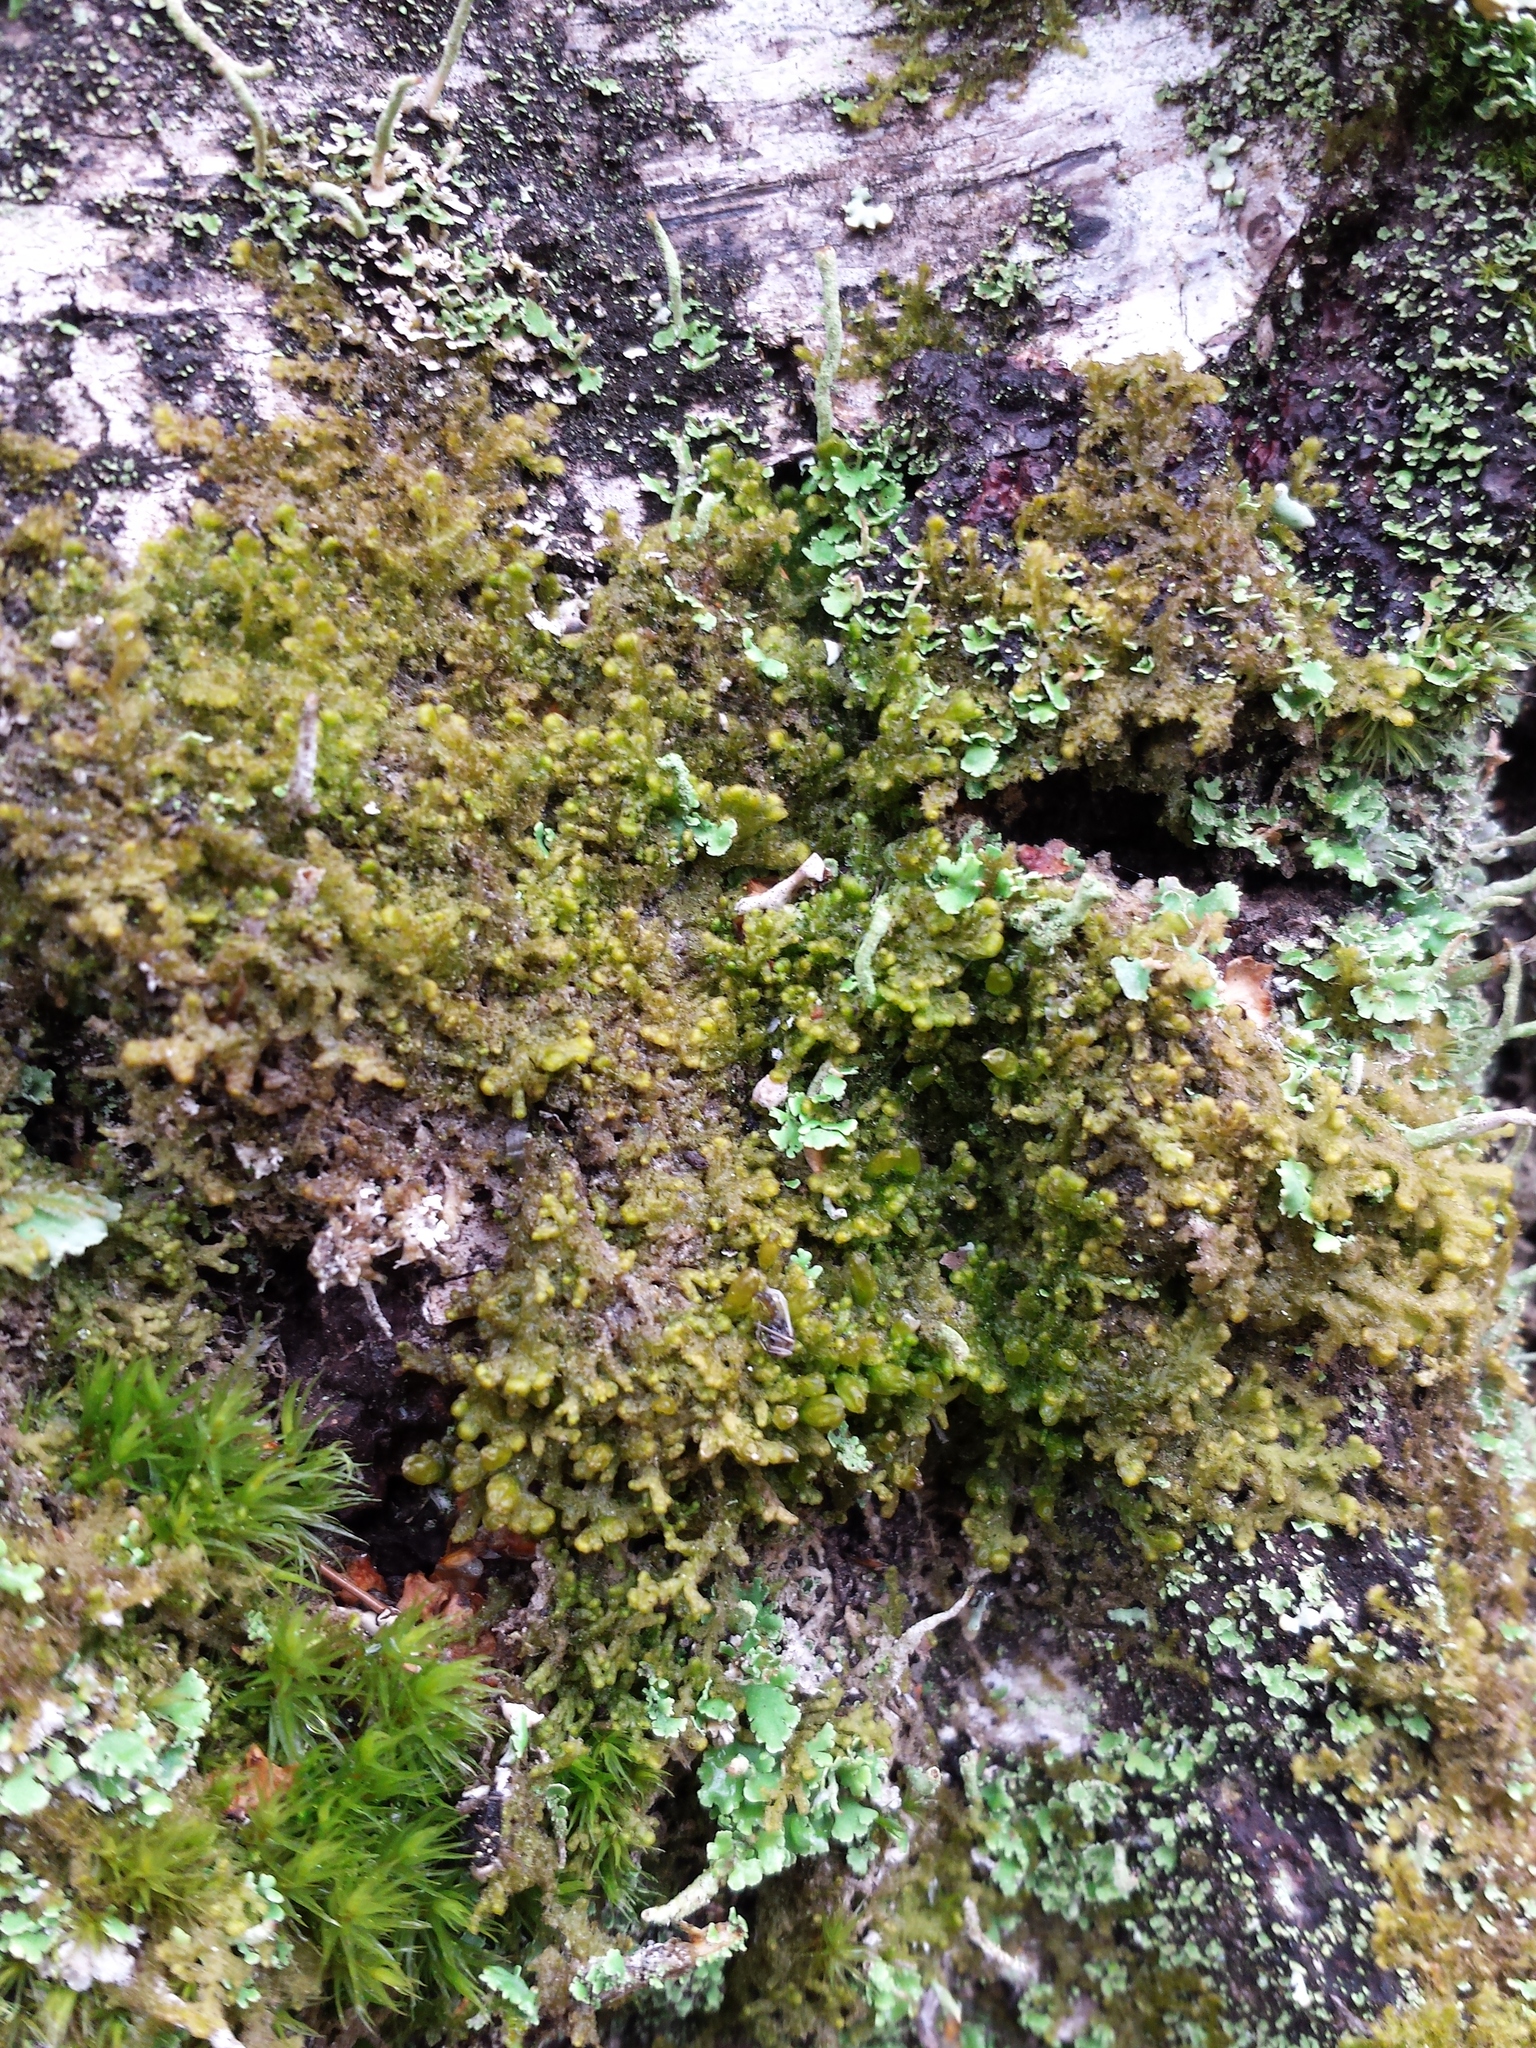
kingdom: Plantae
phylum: Marchantiophyta
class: Jungermanniopsida
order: Ptilidiales
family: Ptilidiaceae
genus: Ptilidium
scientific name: Ptilidium pulcherrimum
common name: Tree fringewort
